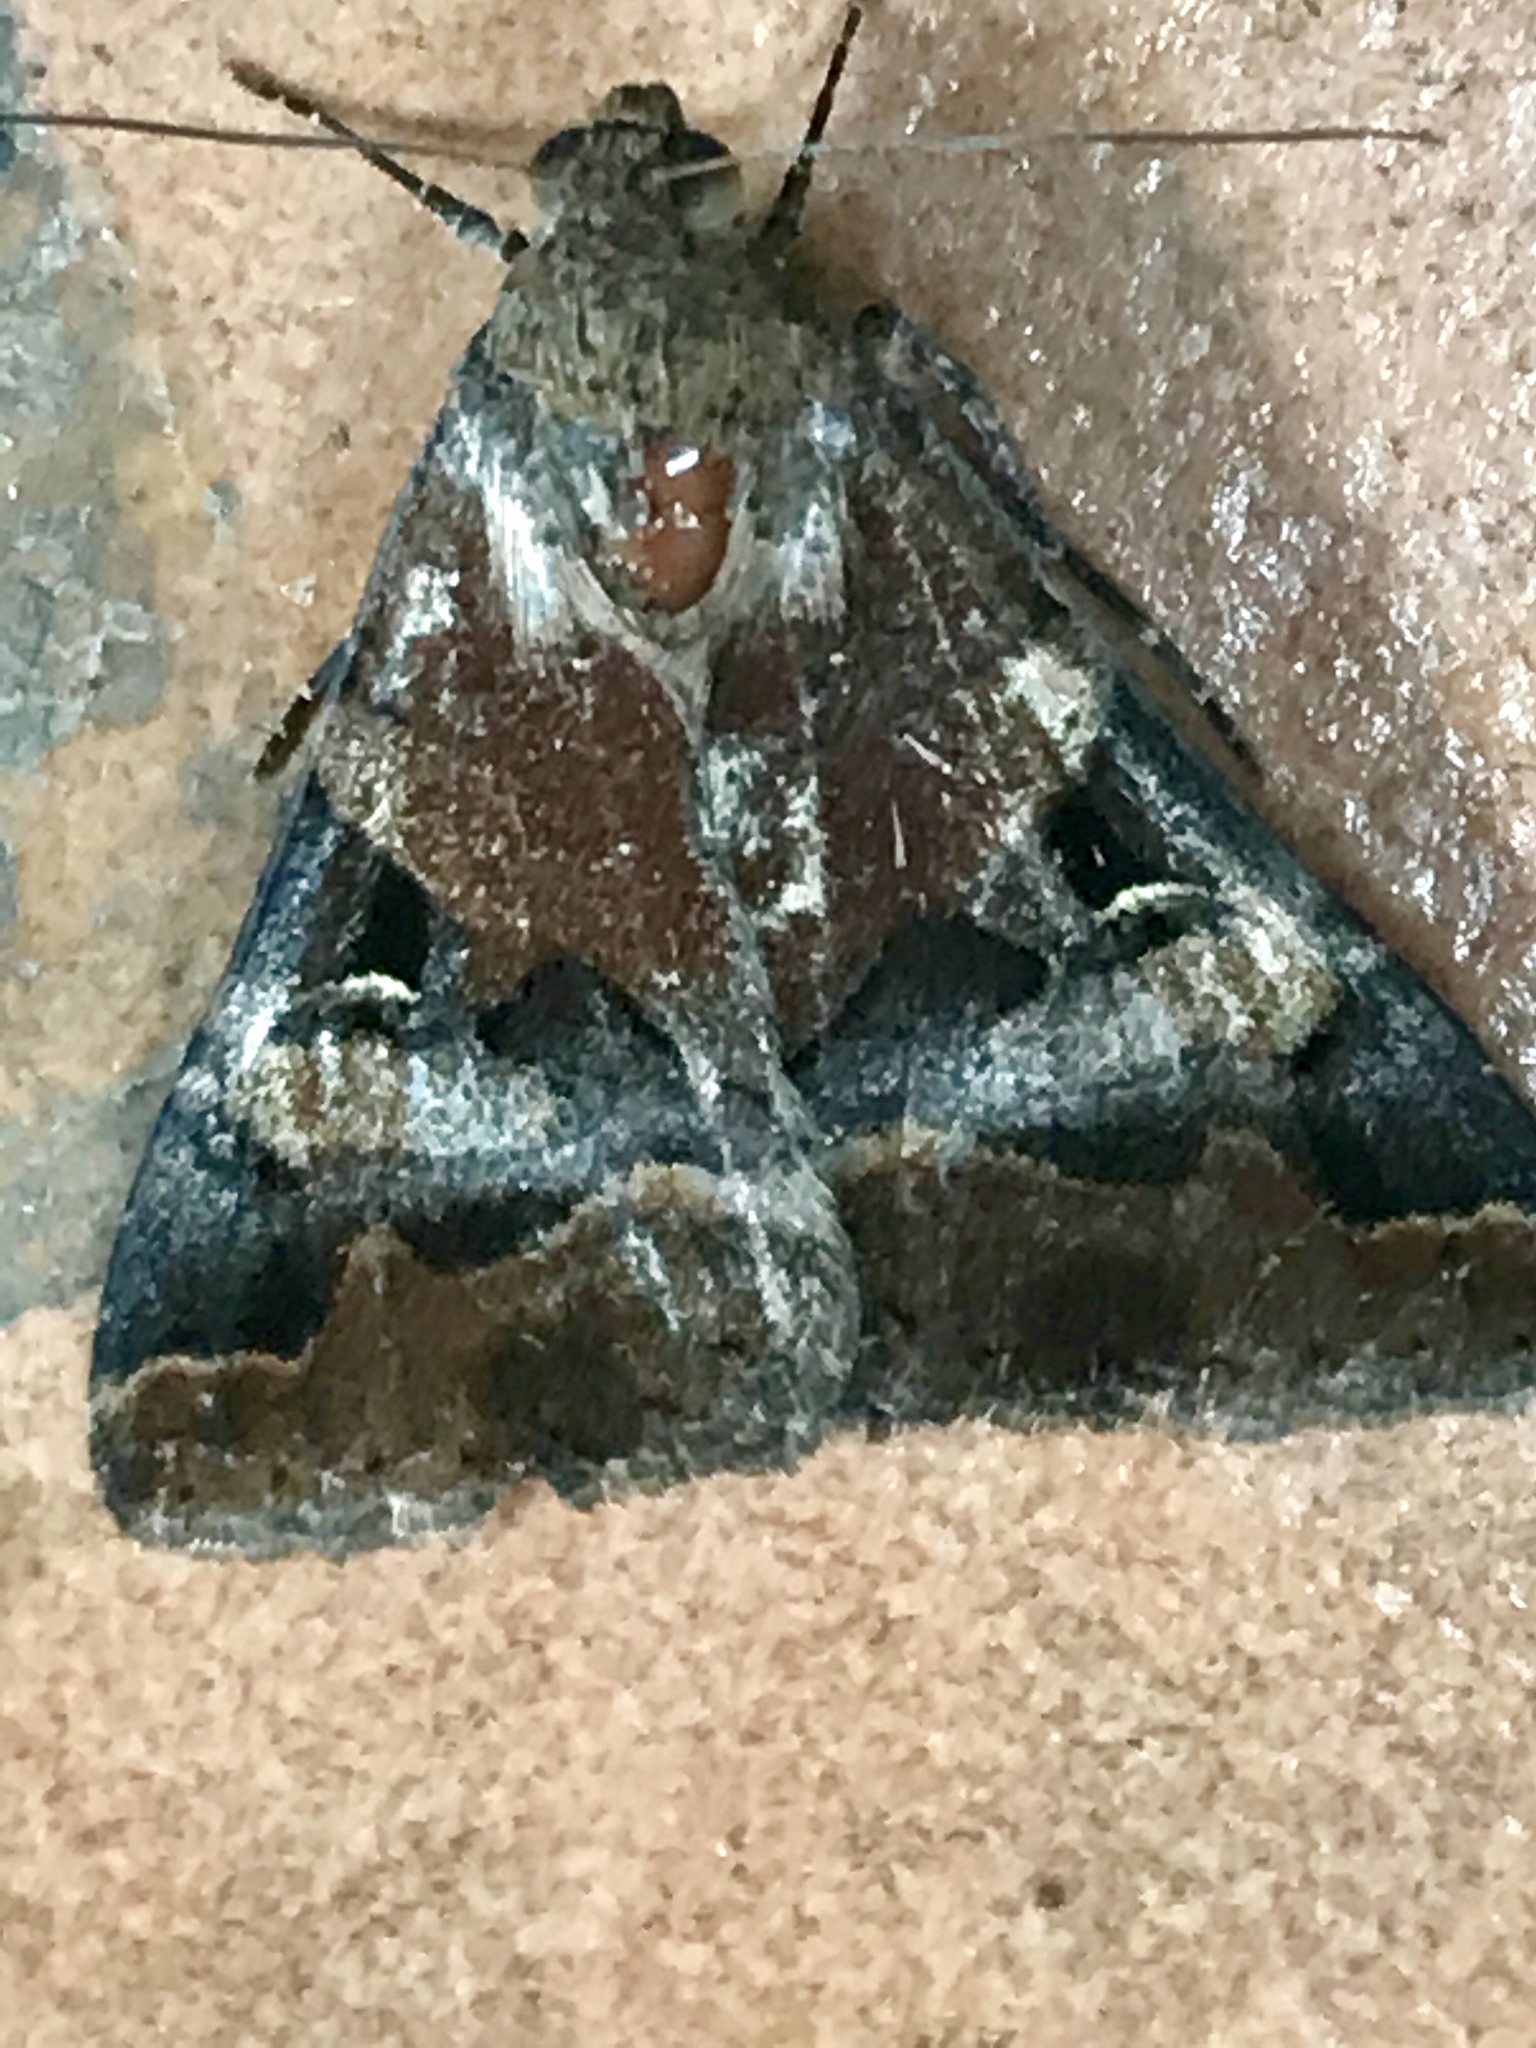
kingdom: Animalia
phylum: Arthropoda
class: Insecta
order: Lepidoptera
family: Erebidae
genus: Melipotis
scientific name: Melipotis perpendicularis
